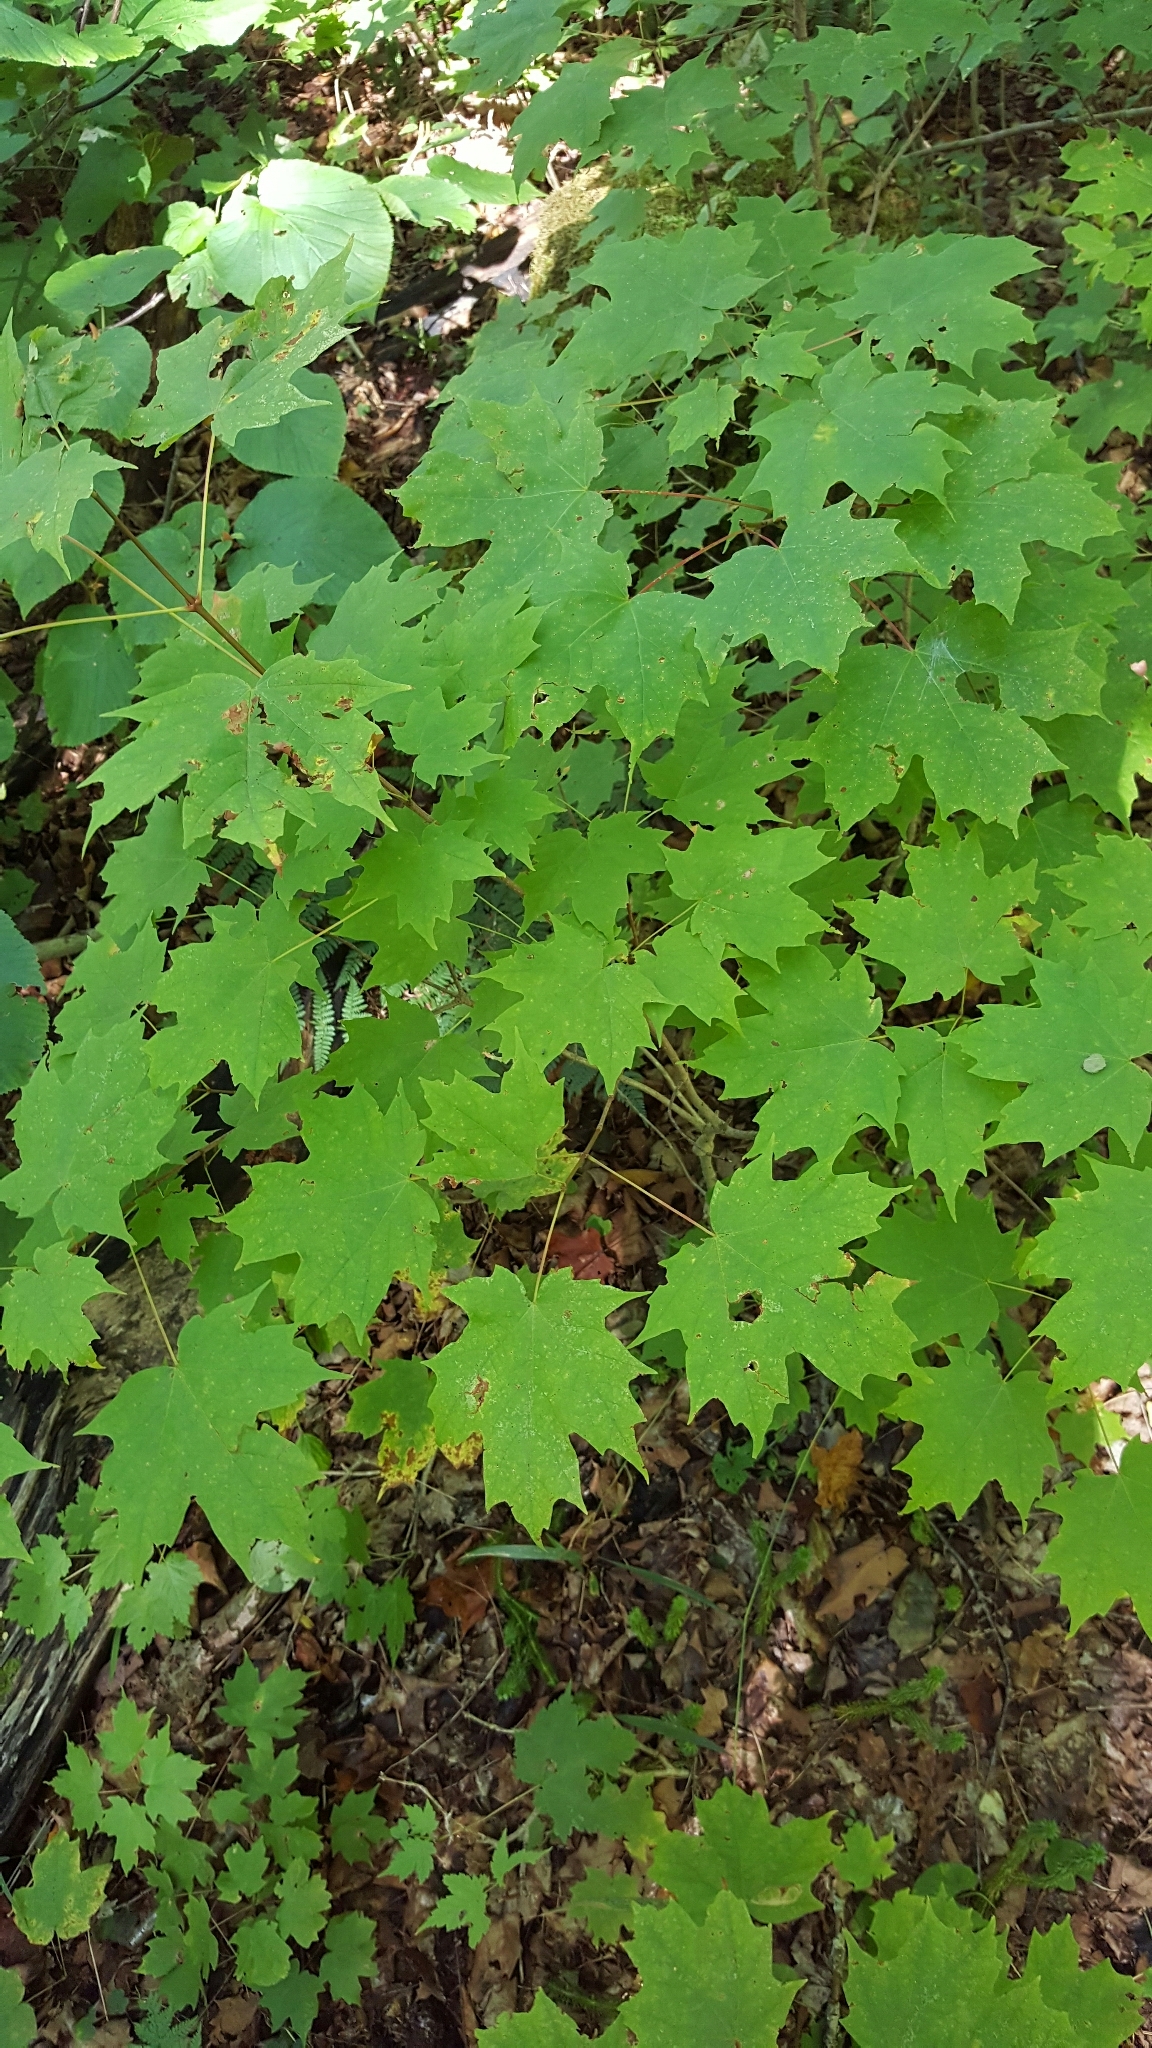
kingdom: Plantae
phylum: Tracheophyta
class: Magnoliopsida
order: Sapindales
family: Sapindaceae
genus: Acer
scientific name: Acer saccharum
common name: Sugar maple
